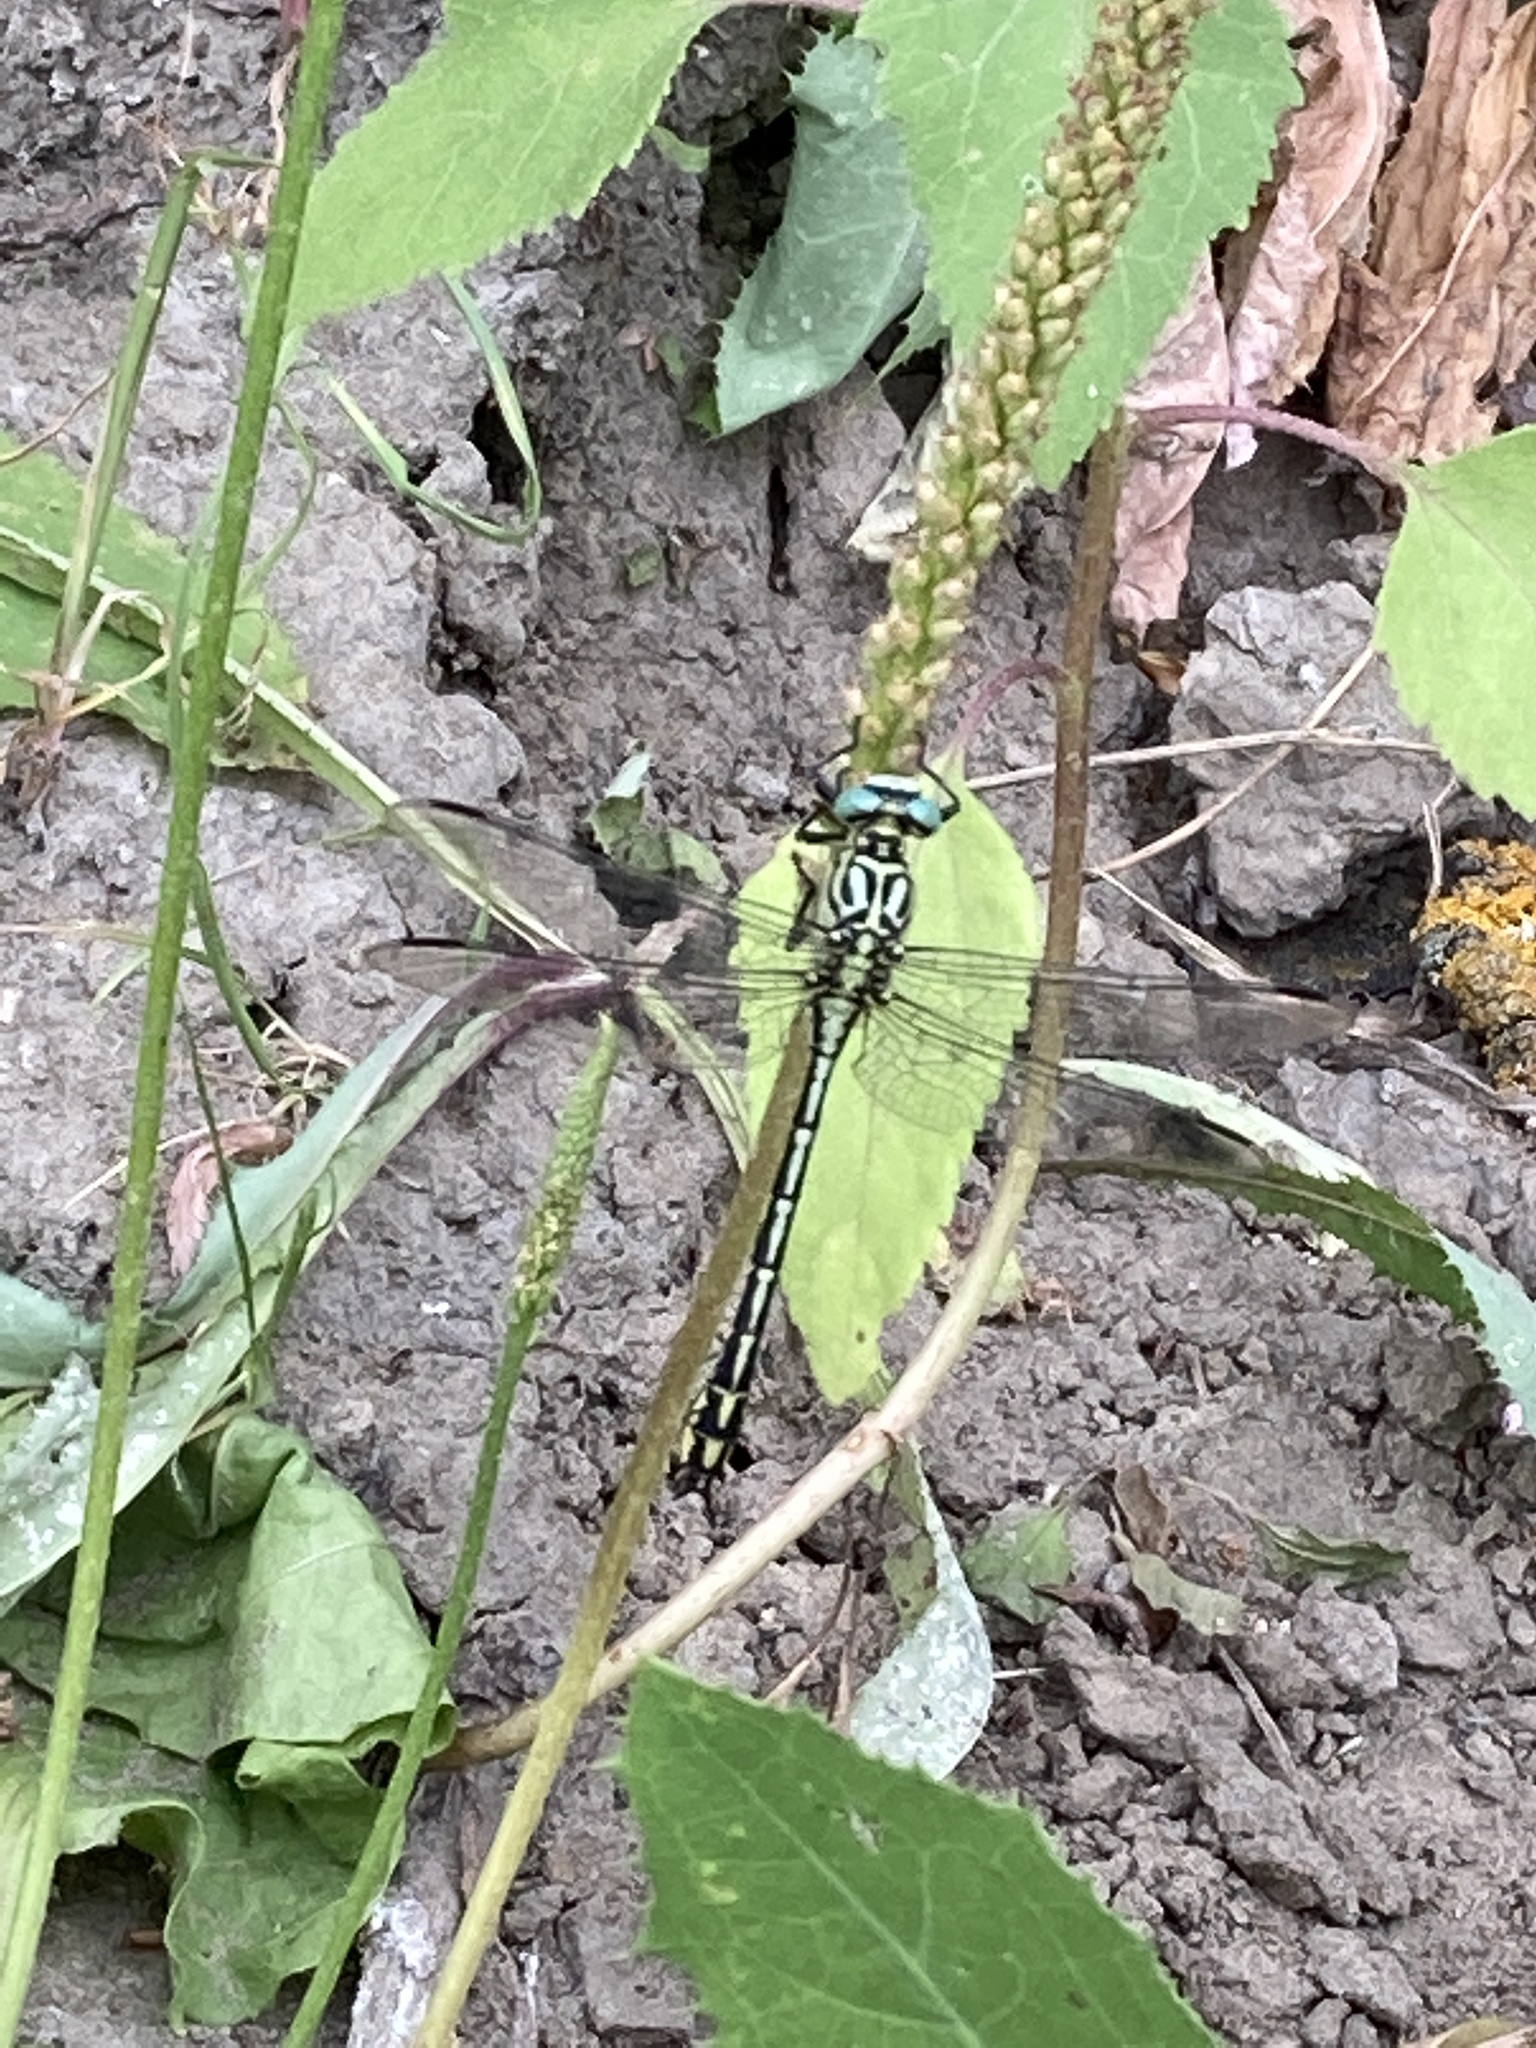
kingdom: Animalia
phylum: Arthropoda
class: Insecta
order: Odonata
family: Gomphidae
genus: Stylurus
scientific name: Stylurus flavipes
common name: River clubtail
